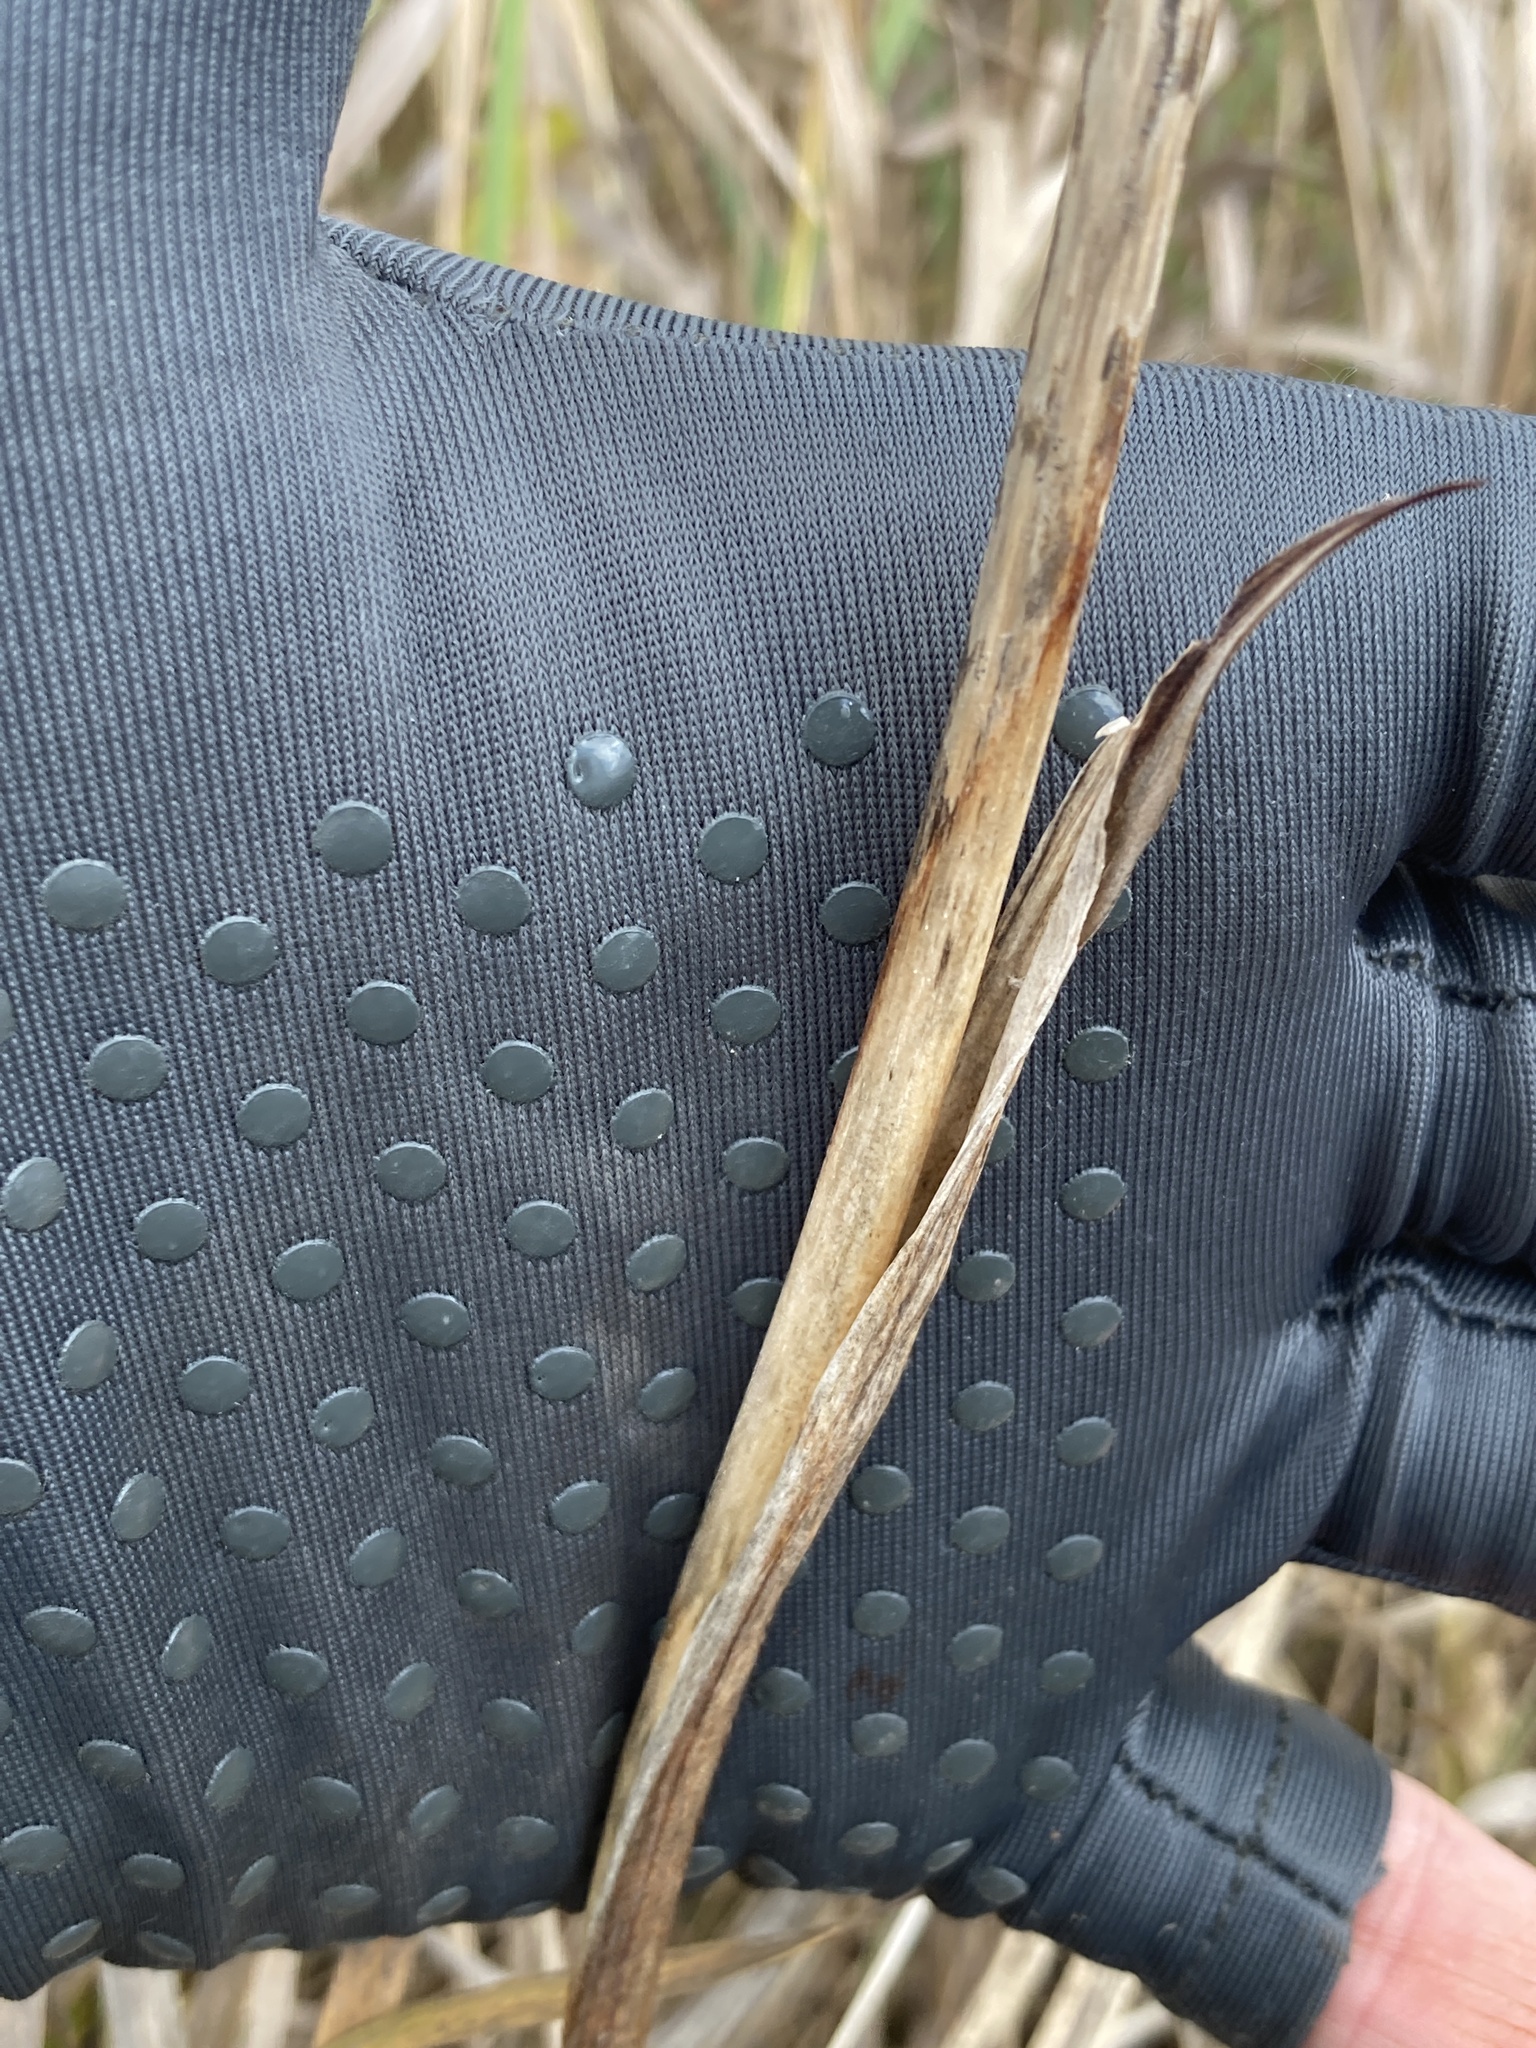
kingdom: Plantae
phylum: Tracheophyta
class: Liliopsida
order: Asparagales
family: Iridaceae
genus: Iris
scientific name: Iris halophila
